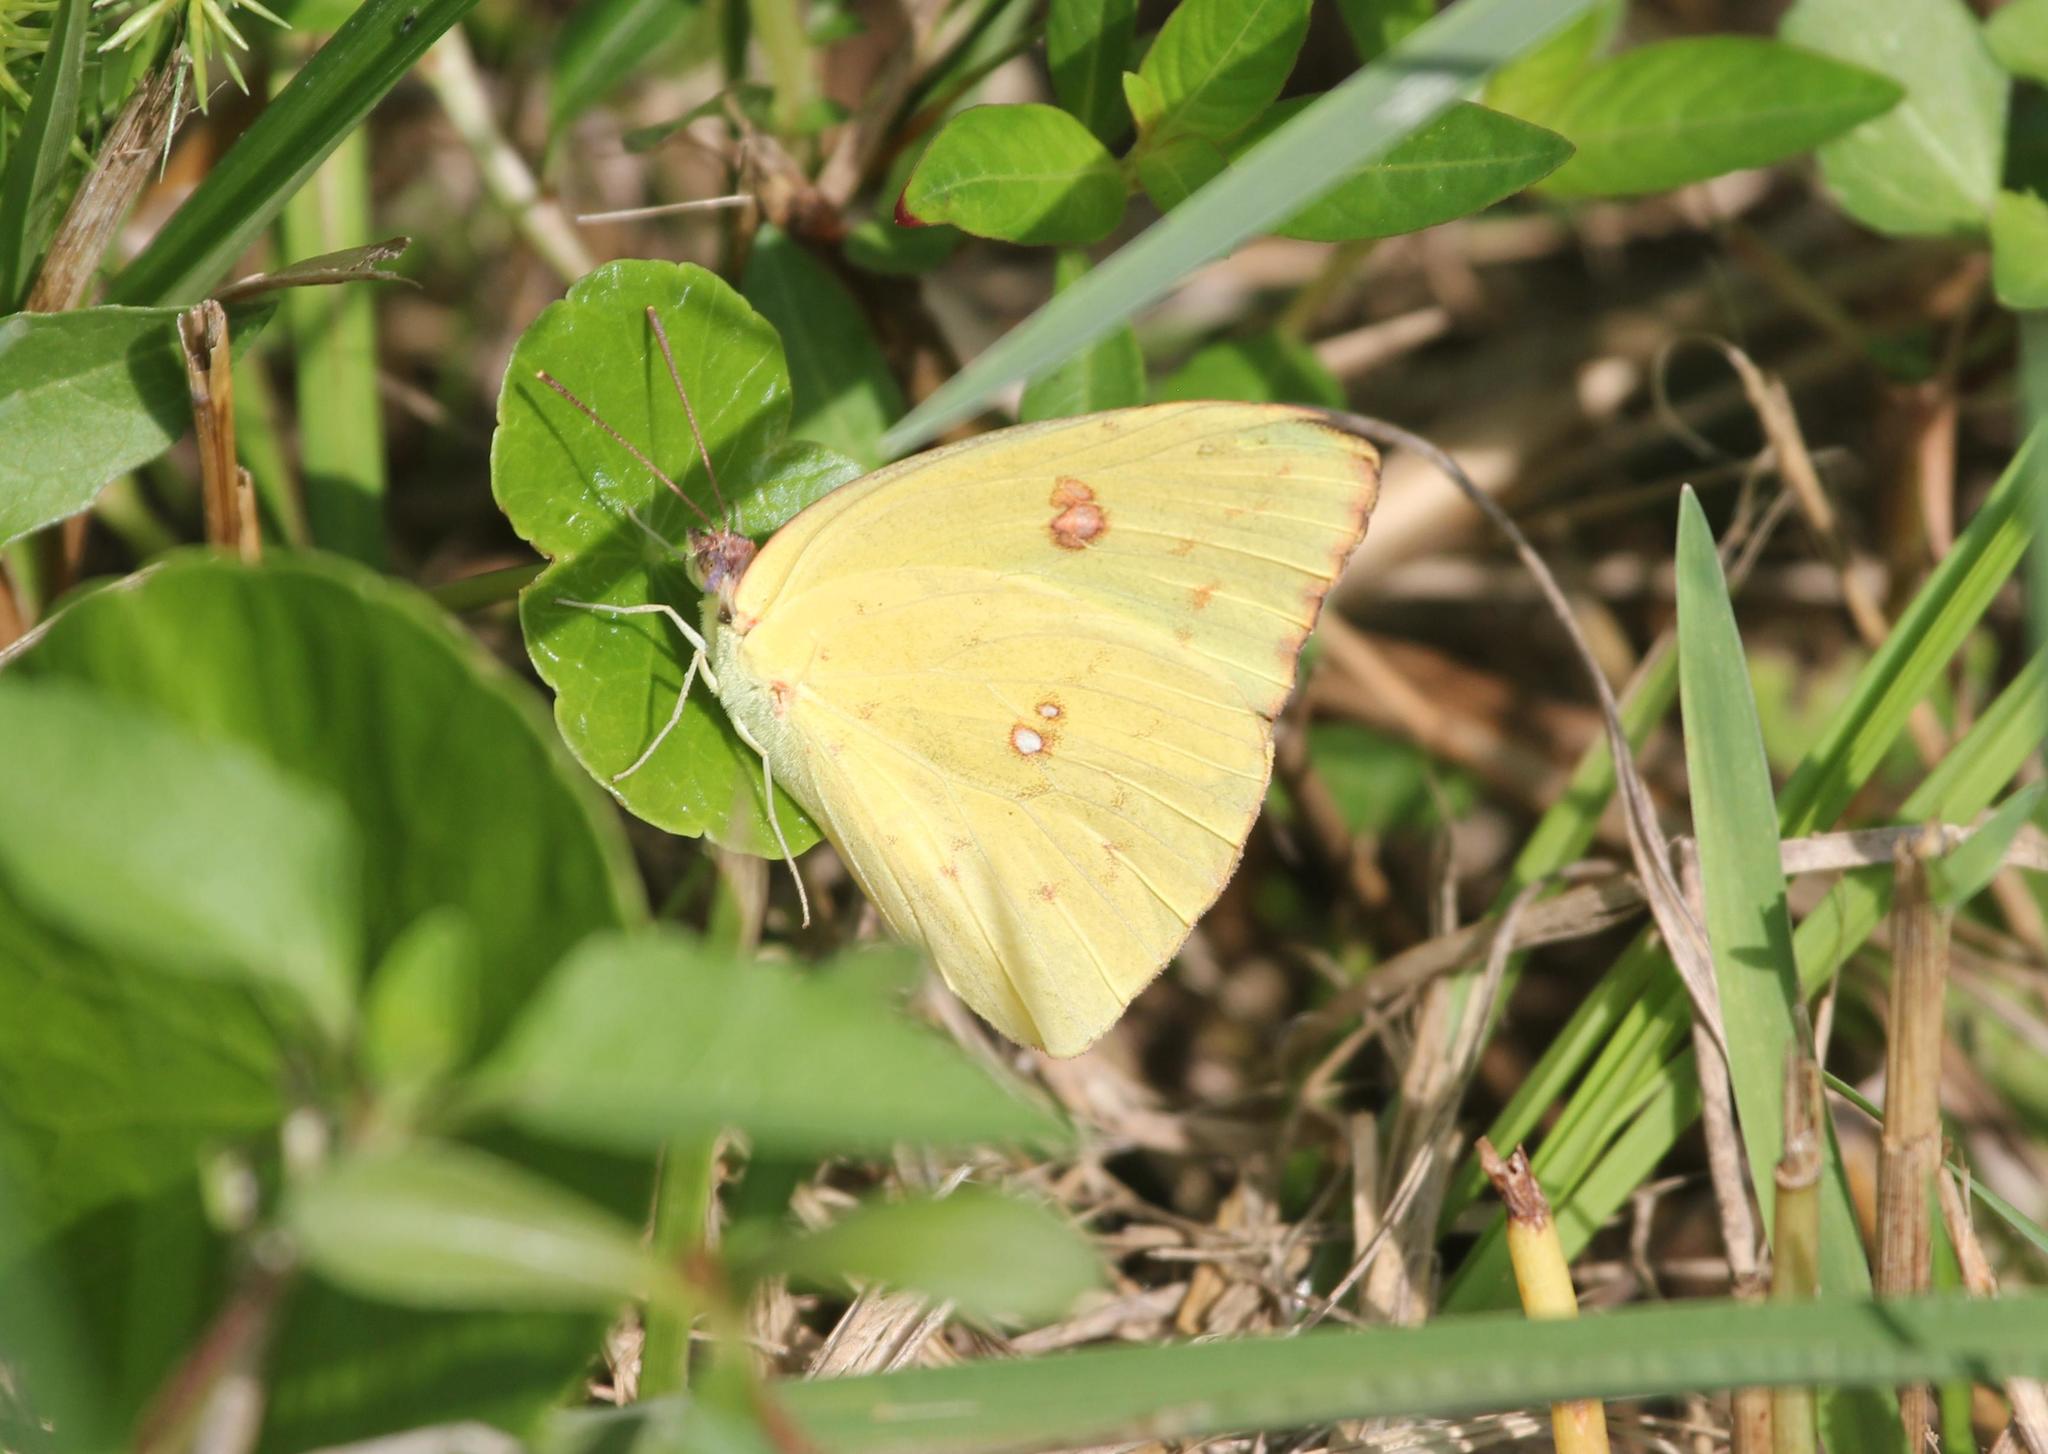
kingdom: Animalia
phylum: Arthropoda
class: Insecta
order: Lepidoptera
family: Pieridae
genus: Phoebis
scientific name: Phoebis sennae
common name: Cloudless sulphur
